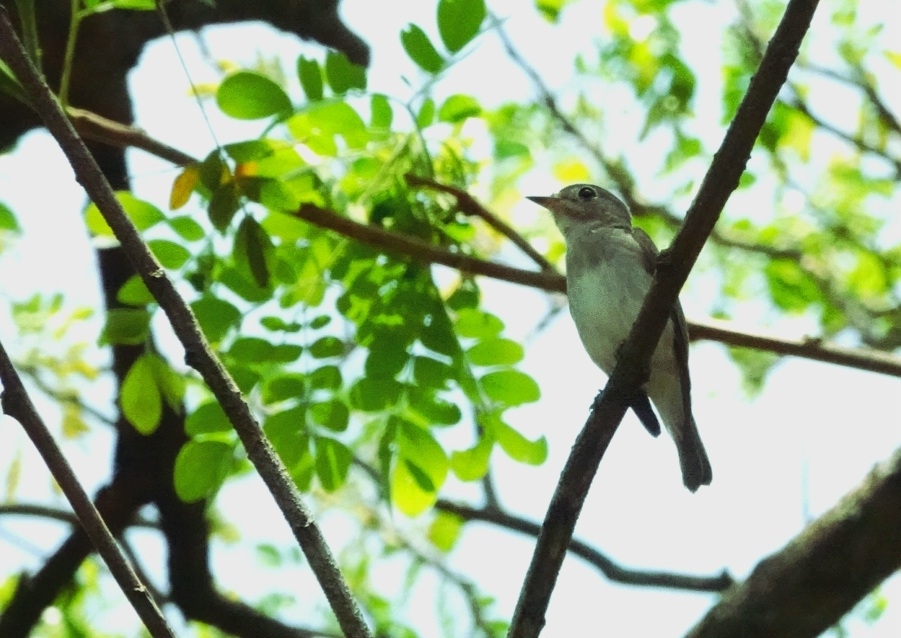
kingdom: Animalia
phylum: Chordata
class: Aves
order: Passeriformes
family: Muscicapidae
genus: Muscicapa
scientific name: Muscicapa latirostris
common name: Asian brown flycatcher
